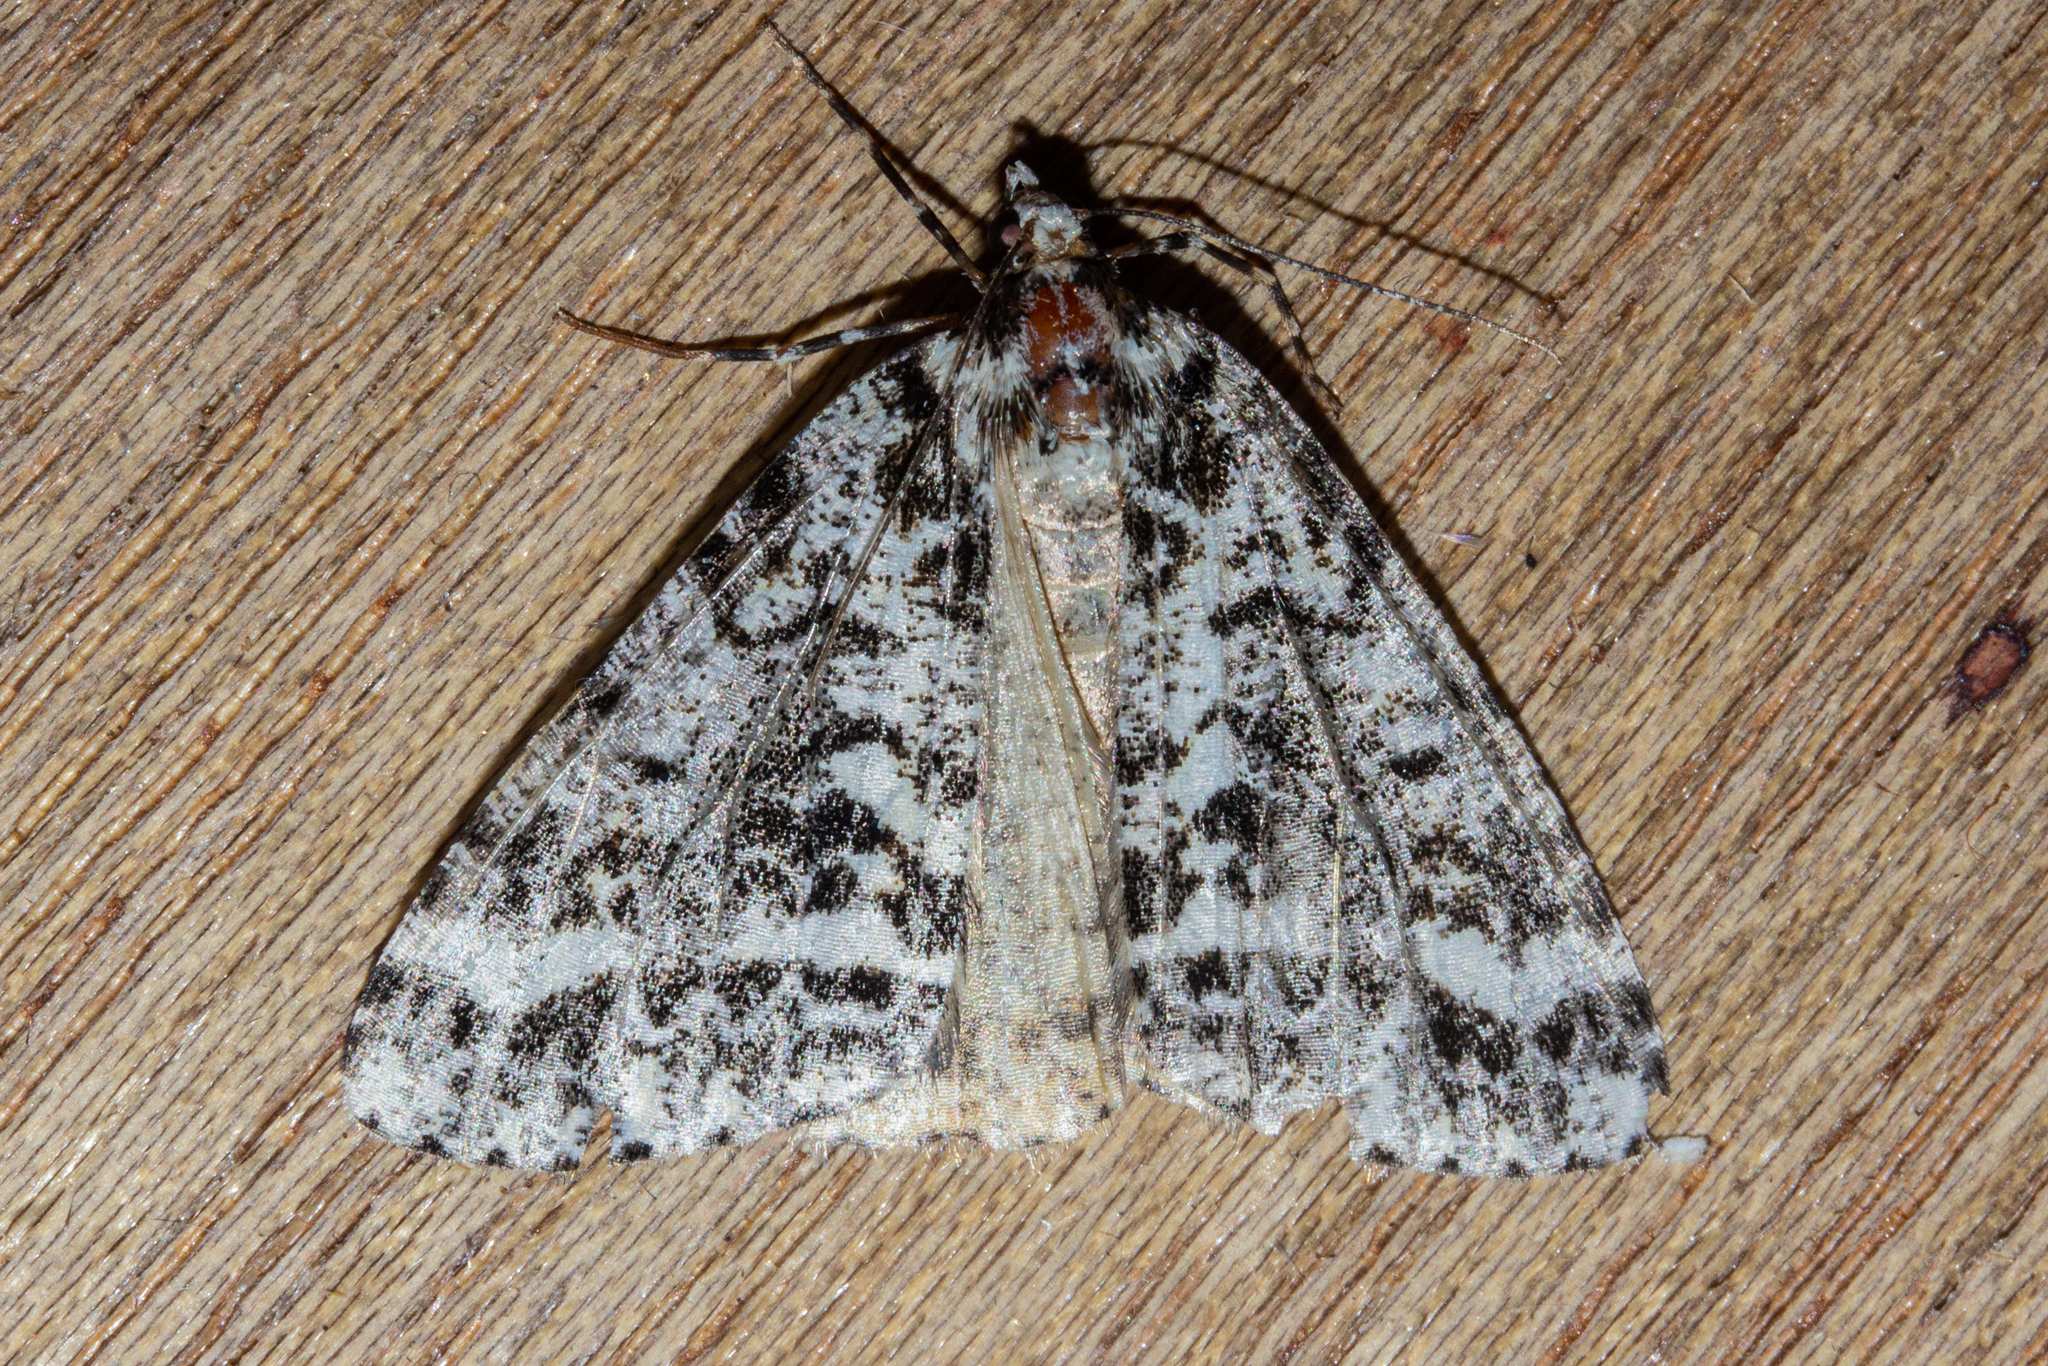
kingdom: Animalia
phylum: Arthropoda
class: Insecta
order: Lepidoptera
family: Geometridae
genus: Pseudocoremia
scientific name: Pseudocoremia leucelaea
